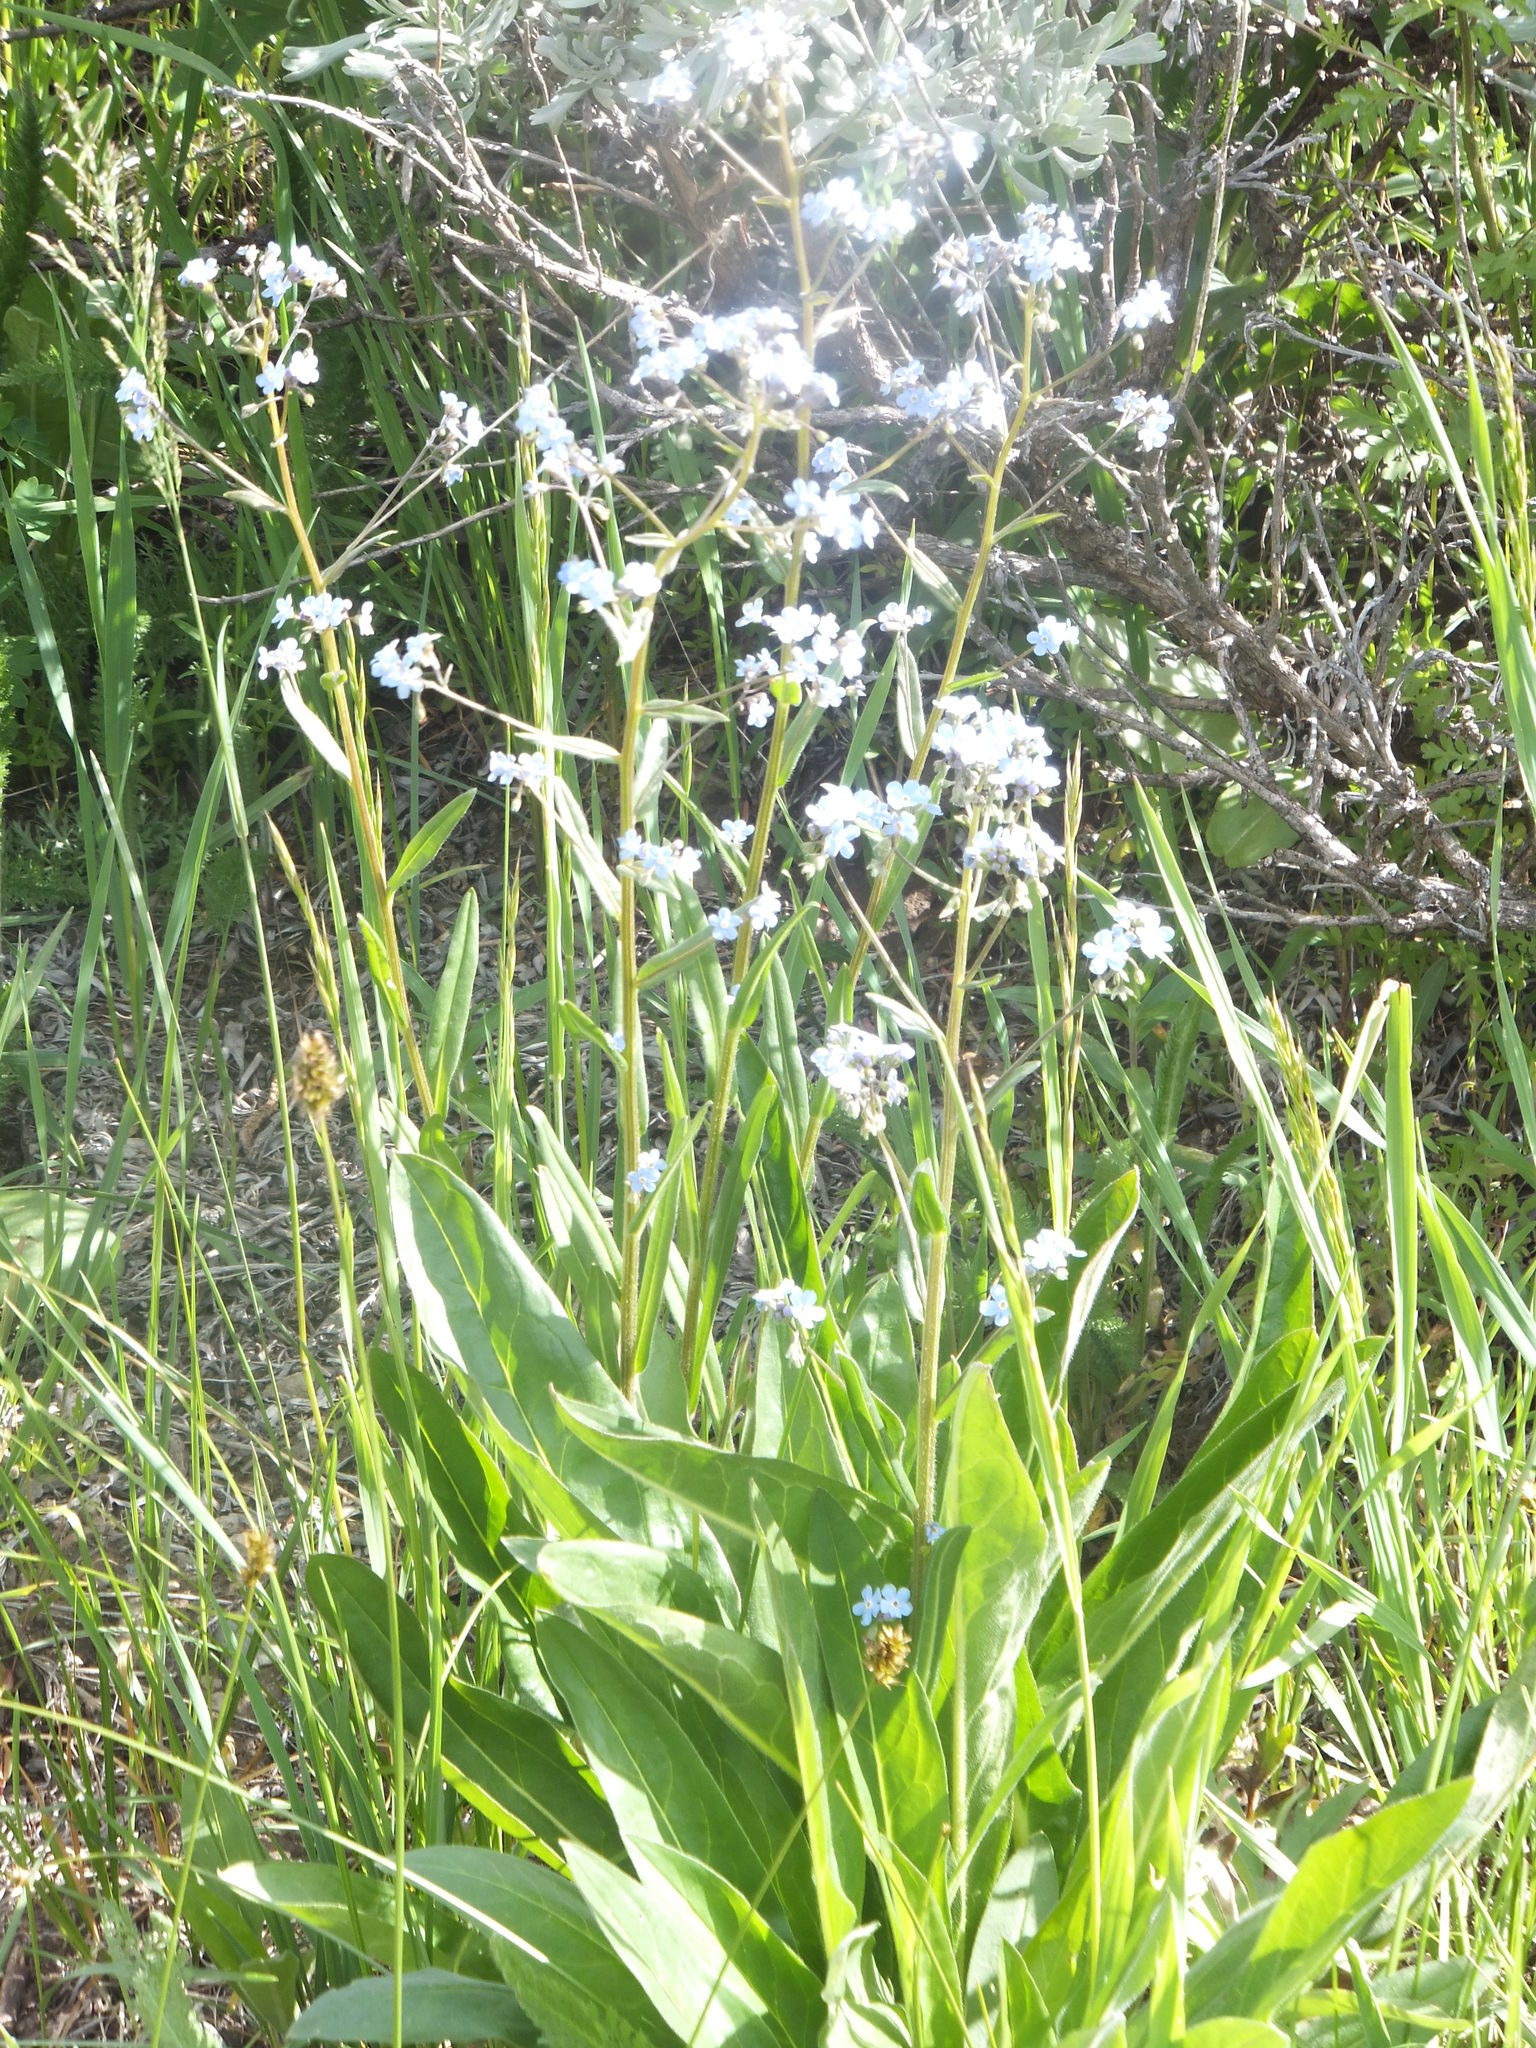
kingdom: Plantae
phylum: Tracheophyta
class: Magnoliopsida
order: Boraginales
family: Boraginaceae
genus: Hackelia
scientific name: Hackelia micrantha
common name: Meadow stickseed
